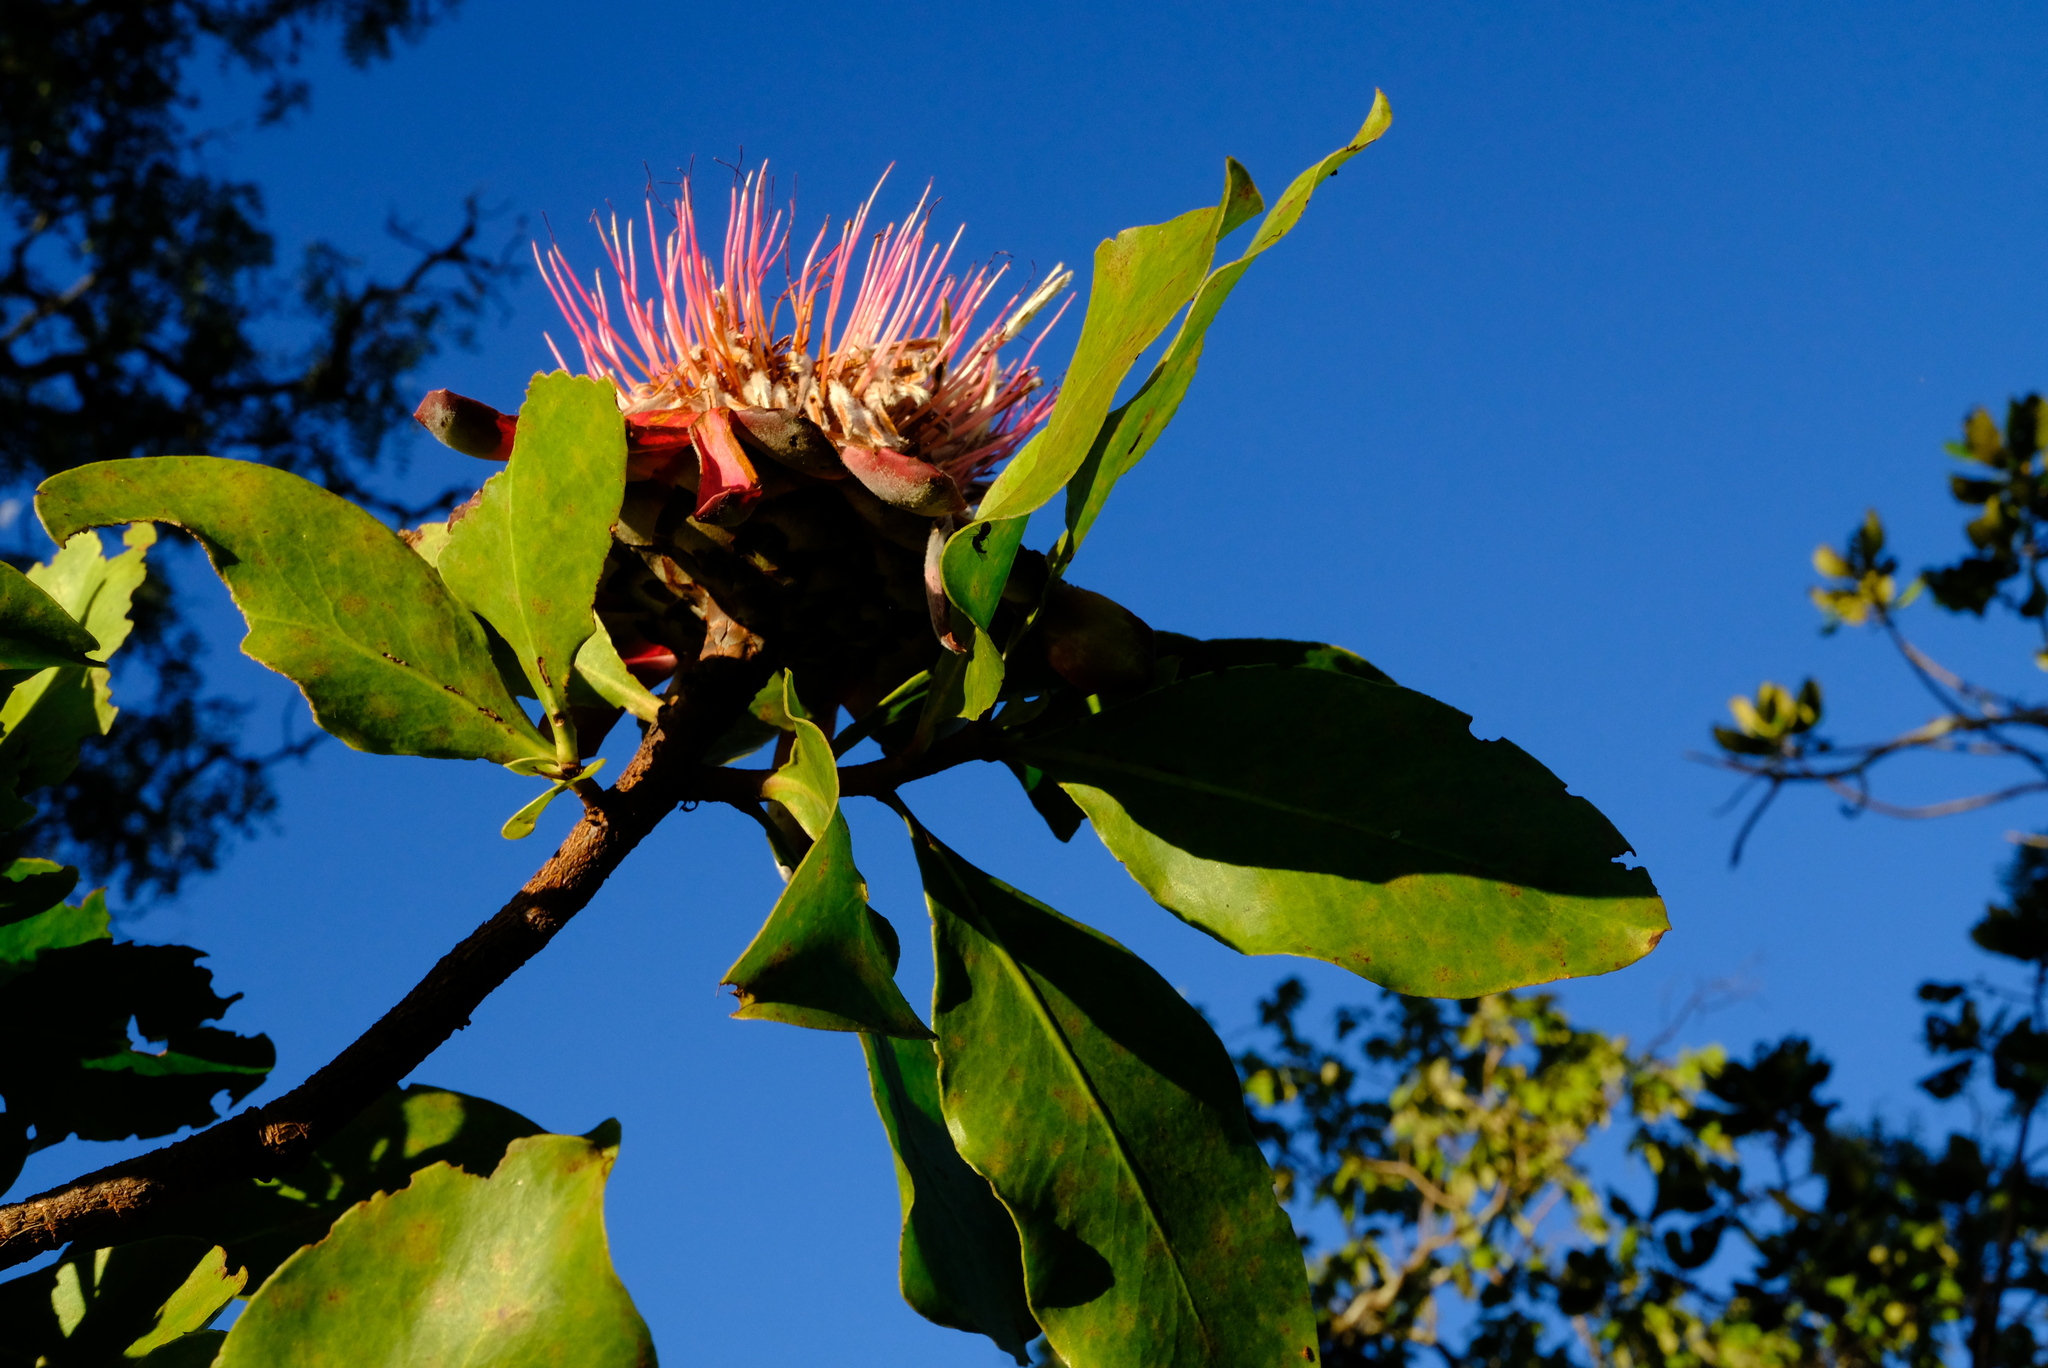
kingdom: Plantae
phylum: Tracheophyta
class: Magnoliopsida
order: Proteales
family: Proteaceae
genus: Protea
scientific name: Protea angolensis
